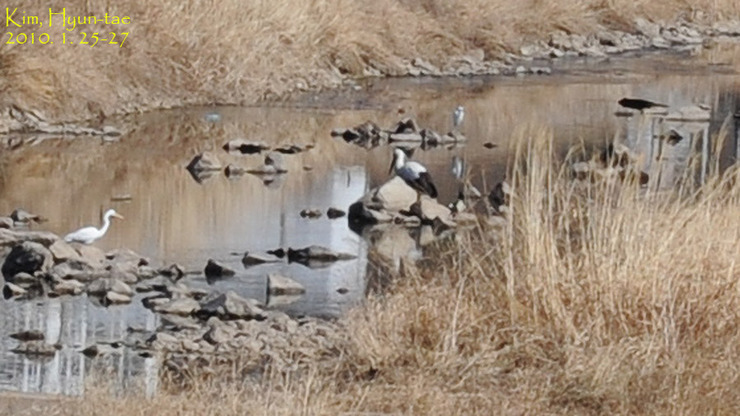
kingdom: Animalia
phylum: Chordata
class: Aves
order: Ciconiiformes
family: Ciconiidae
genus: Ciconia
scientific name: Ciconia boyciana
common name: Oriental stork
